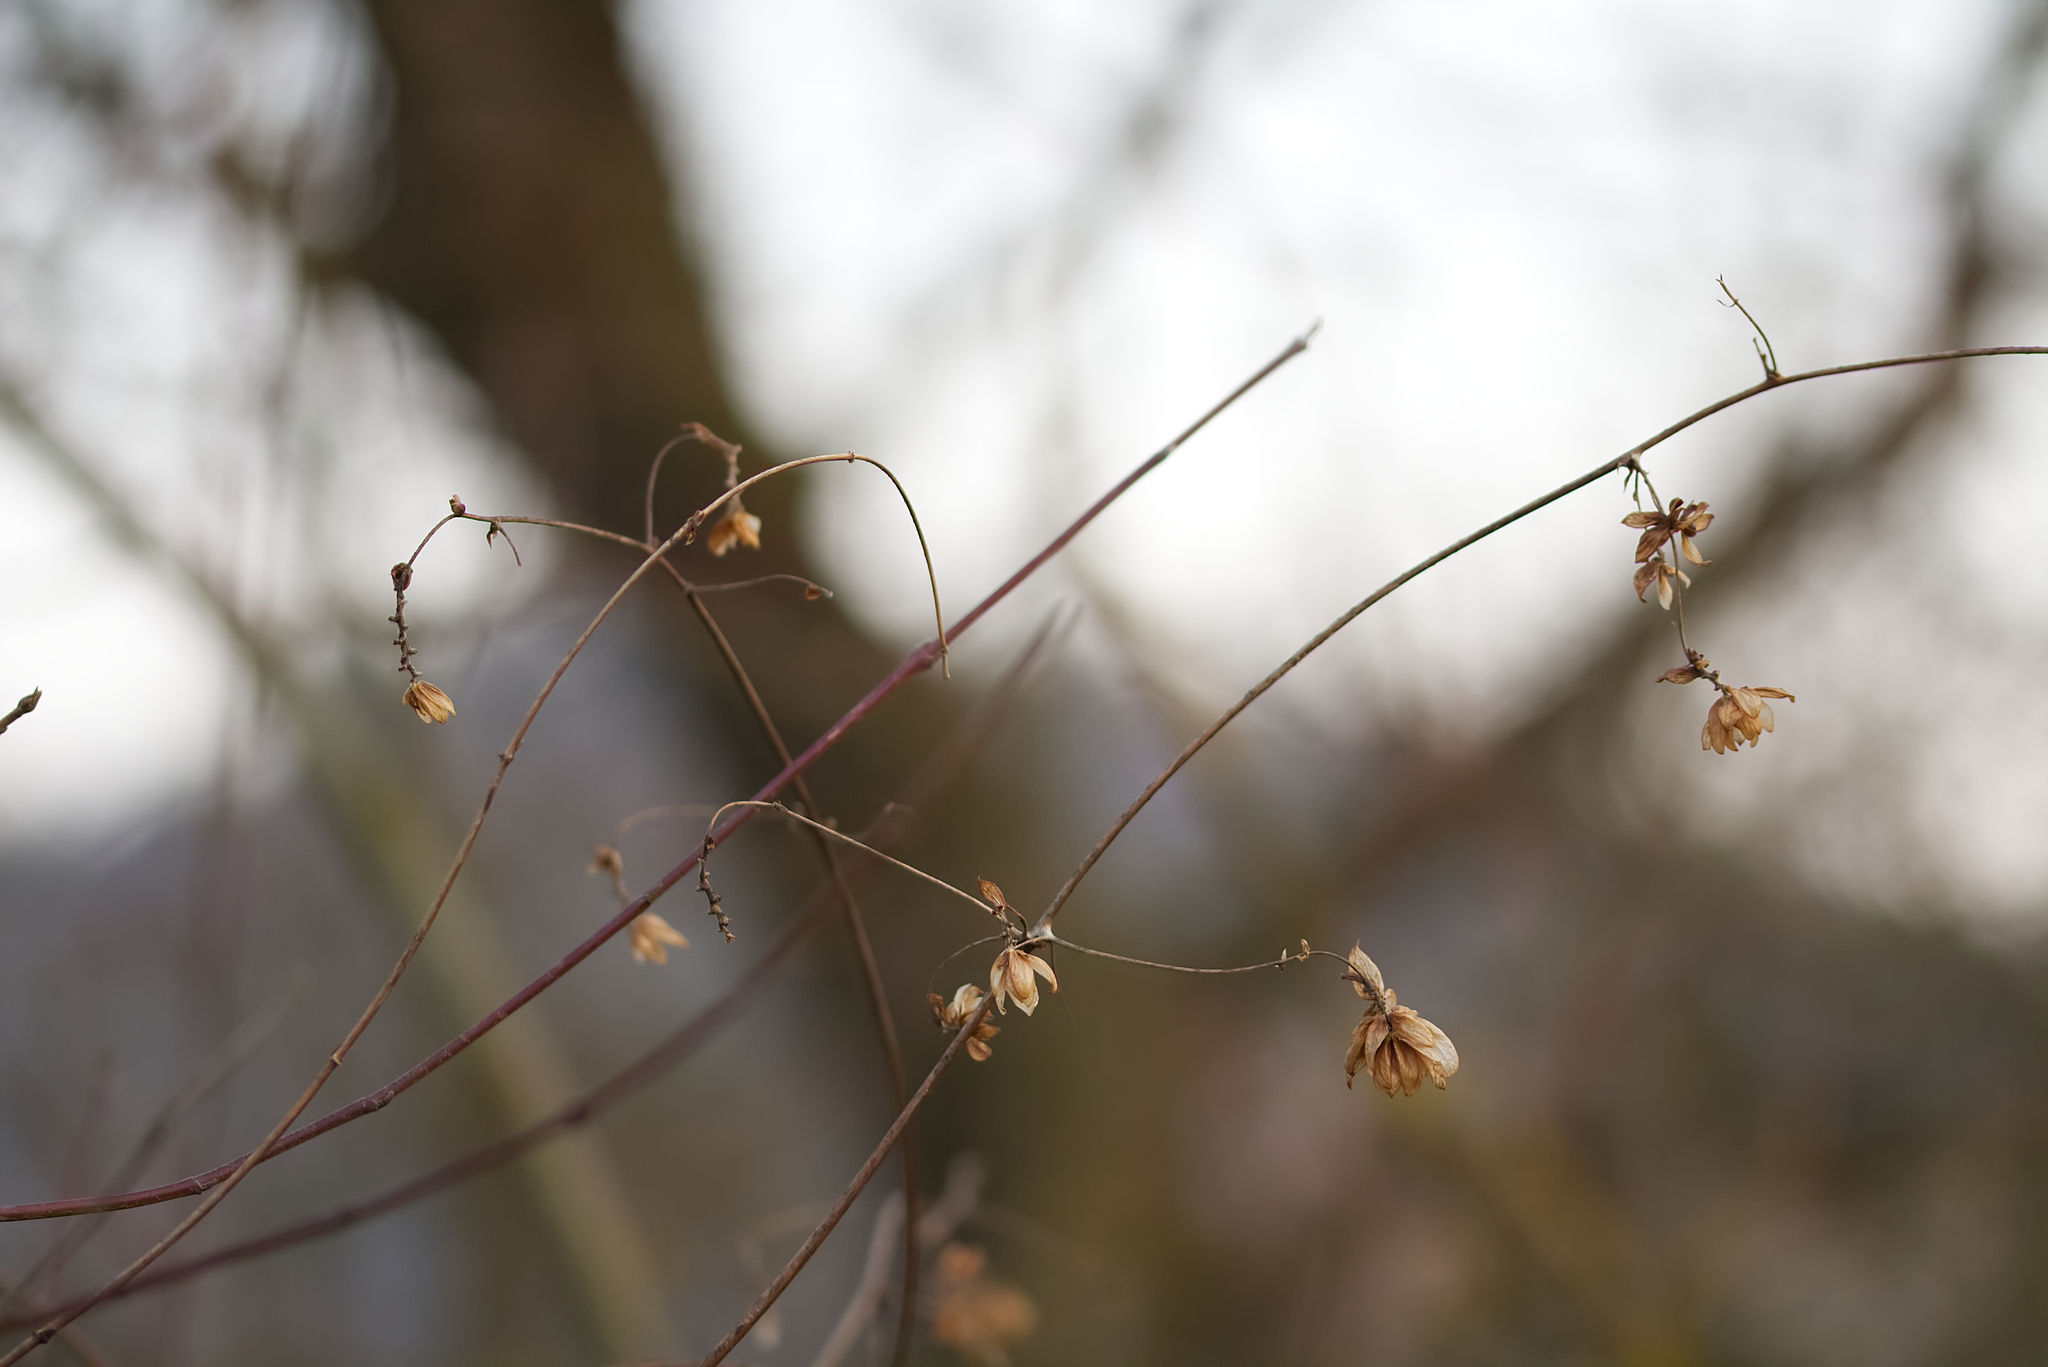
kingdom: Plantae
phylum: Tracheophyta
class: Magnoliopsida
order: Rosales
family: Cannabaceae
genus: Humulus
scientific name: Humulus lupulus
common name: Hop
